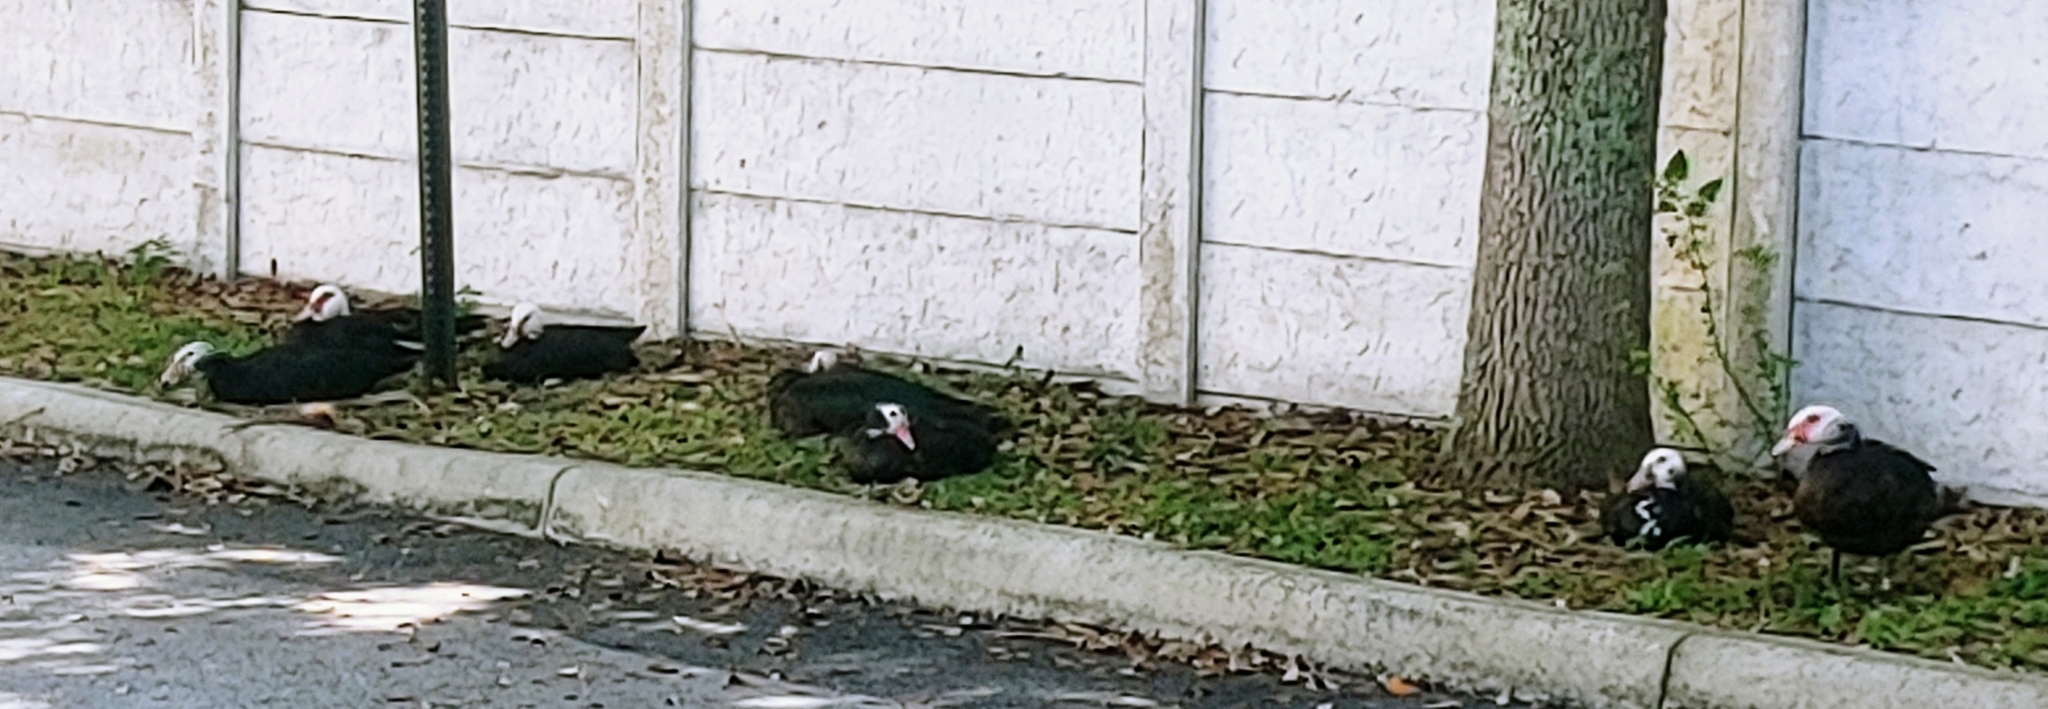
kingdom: Animalia
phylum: Chordata
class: Aves
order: Anseriformes
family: Anatidae
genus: Cairina
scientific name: Cairina moschata
